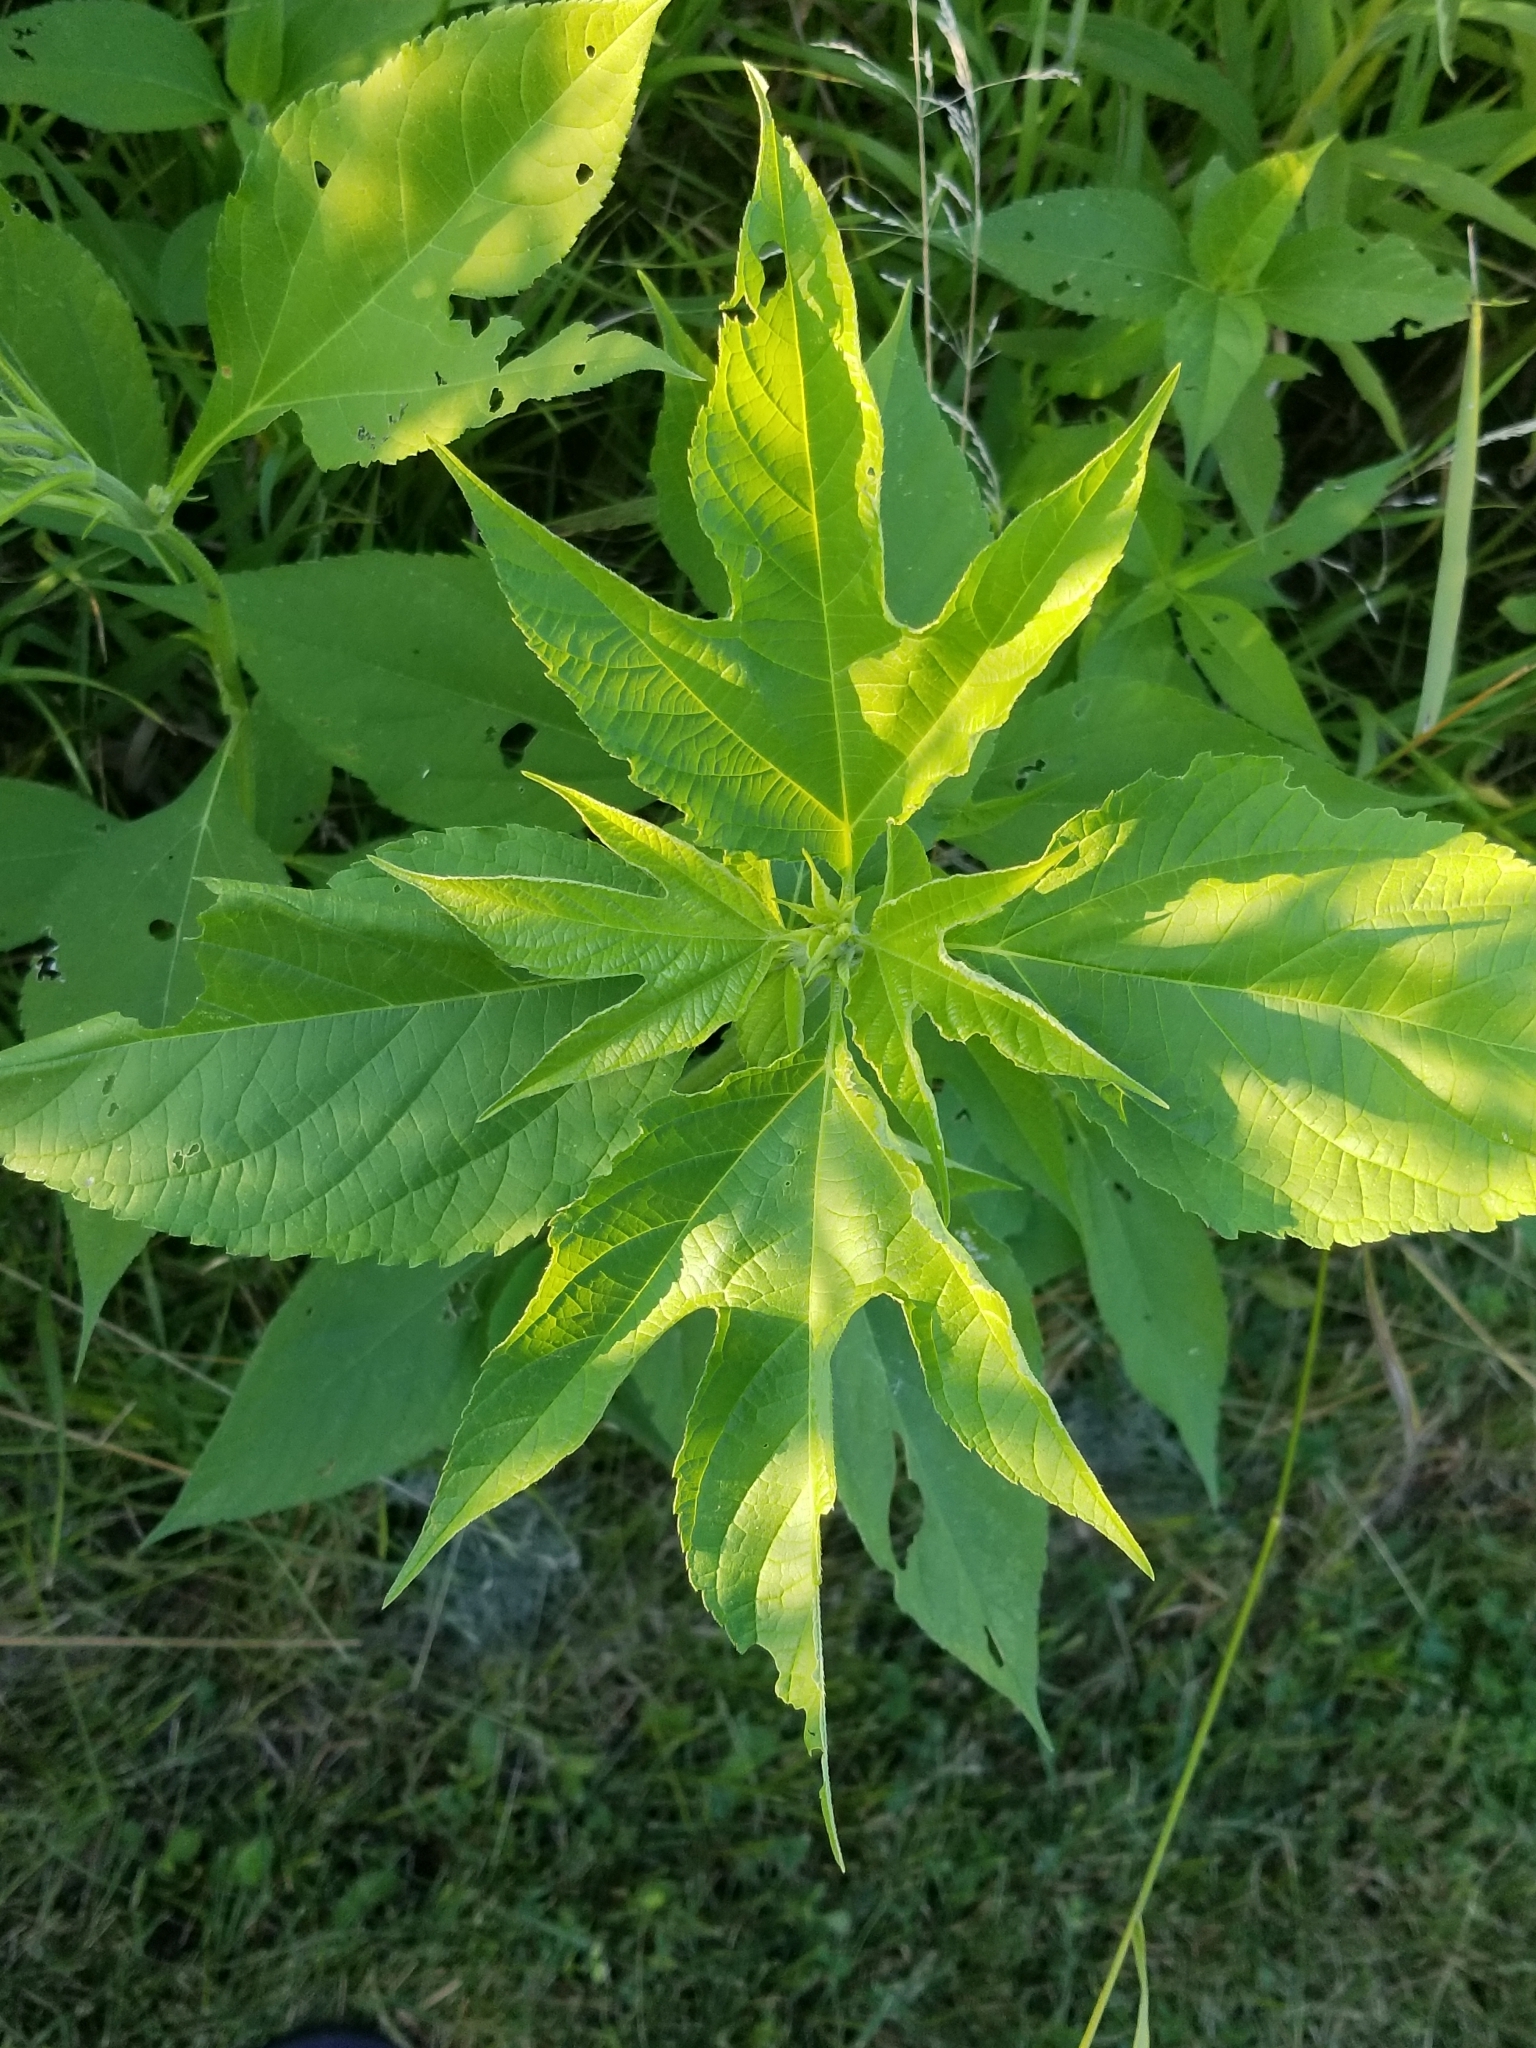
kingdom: Plantae
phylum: Tracheophyta
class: Magnoliopsida
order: Asterales
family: Asteraceae
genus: Ambrosia
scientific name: Ambrosia trifida
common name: Giant ragweed
